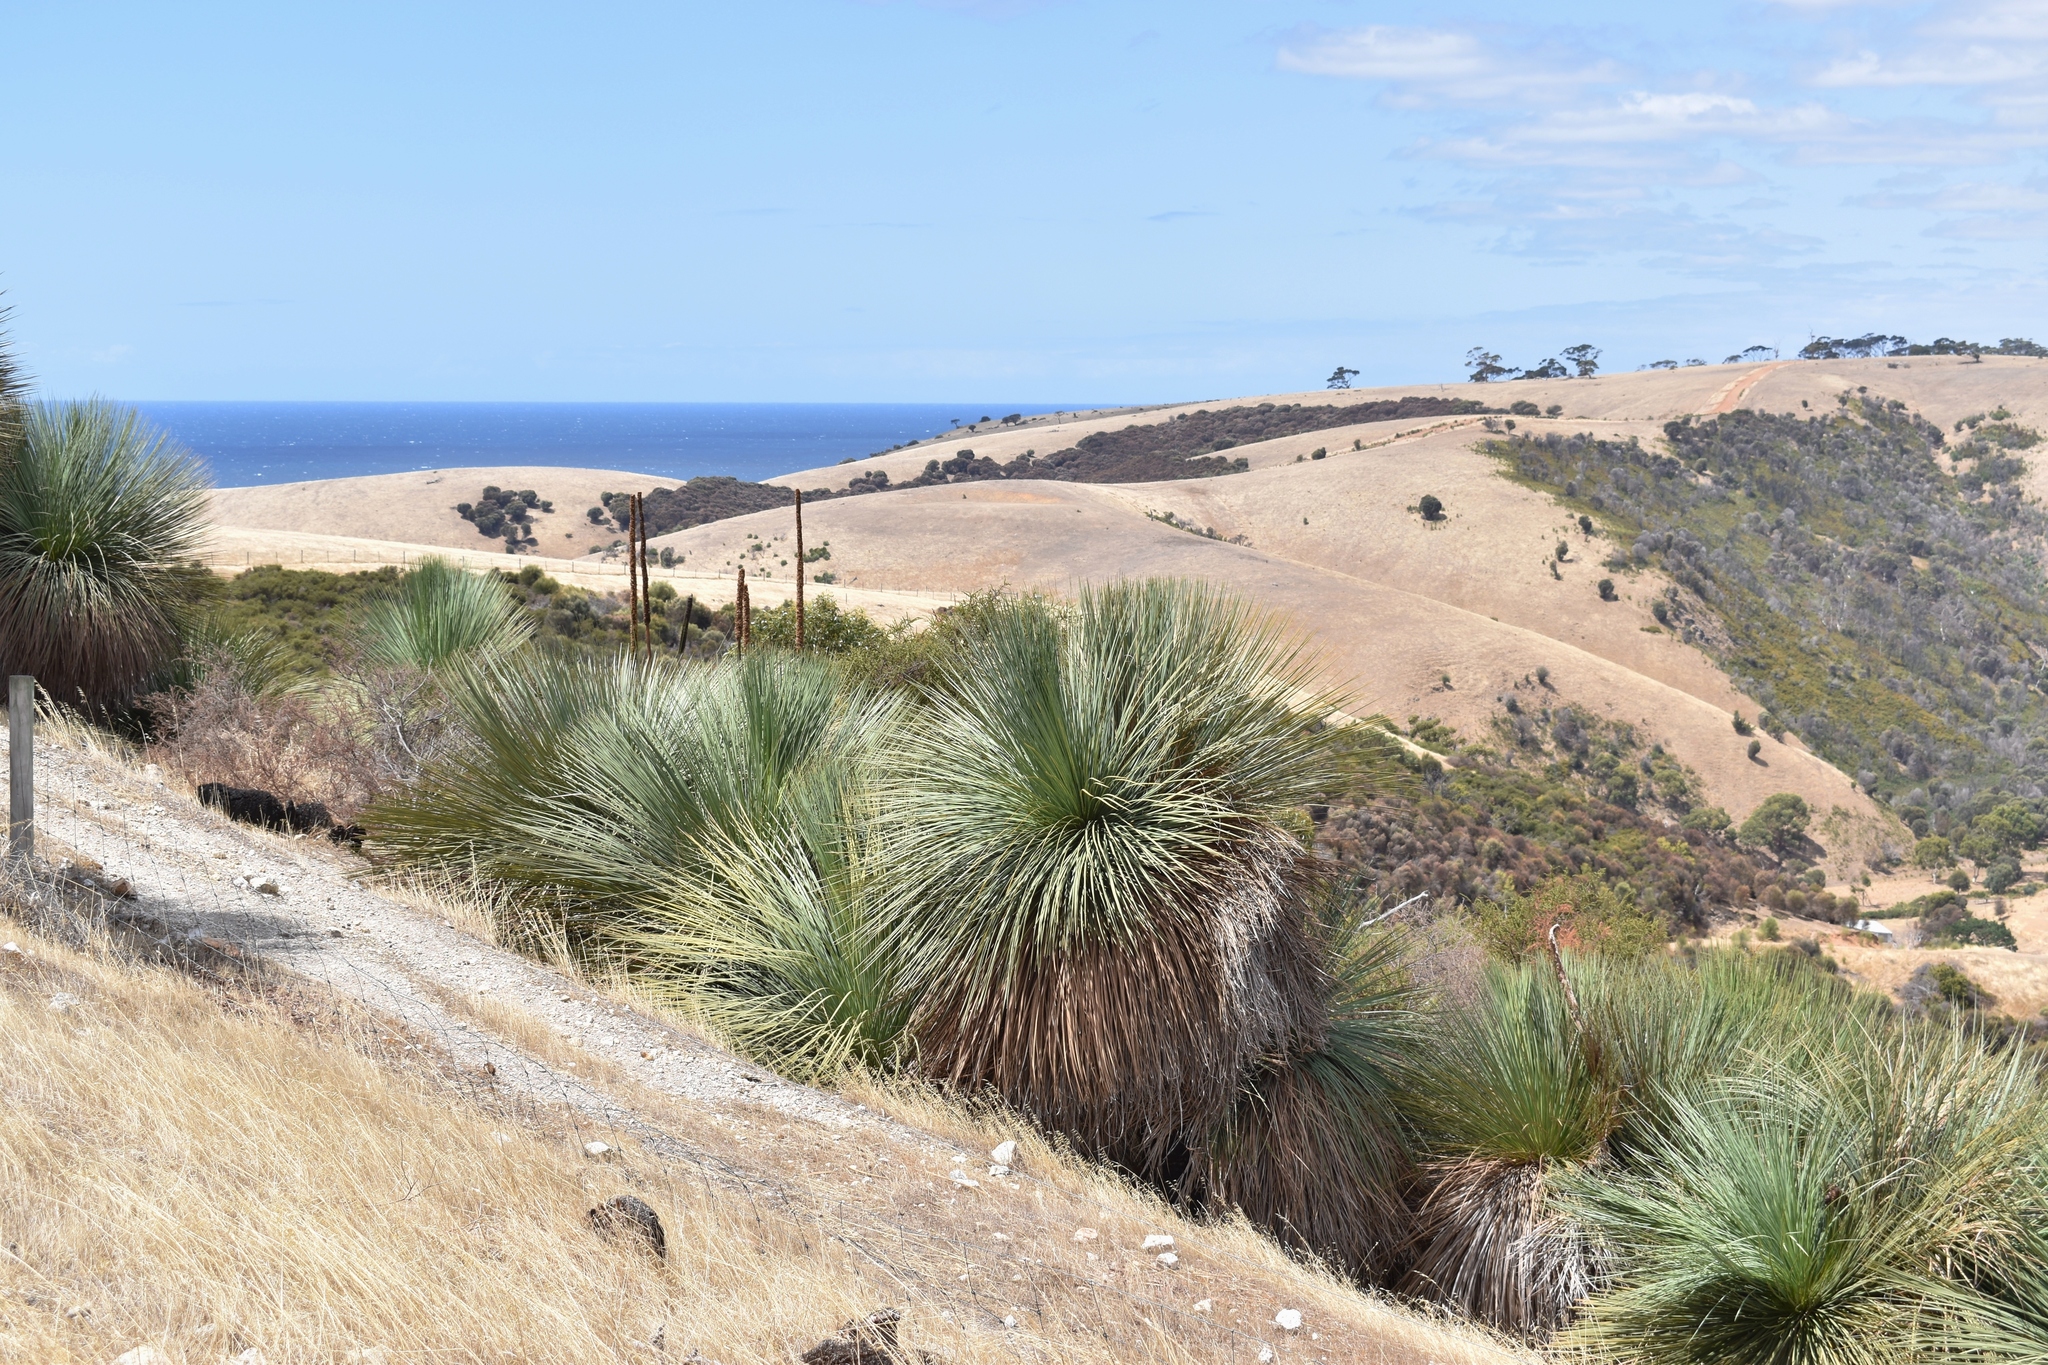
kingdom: Plantae
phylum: Tracheophyta
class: Liliopsida
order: Asparagales
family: Asphodelaceae
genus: Xanthorrhoea
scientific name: Xanthorrhoea semiplana
